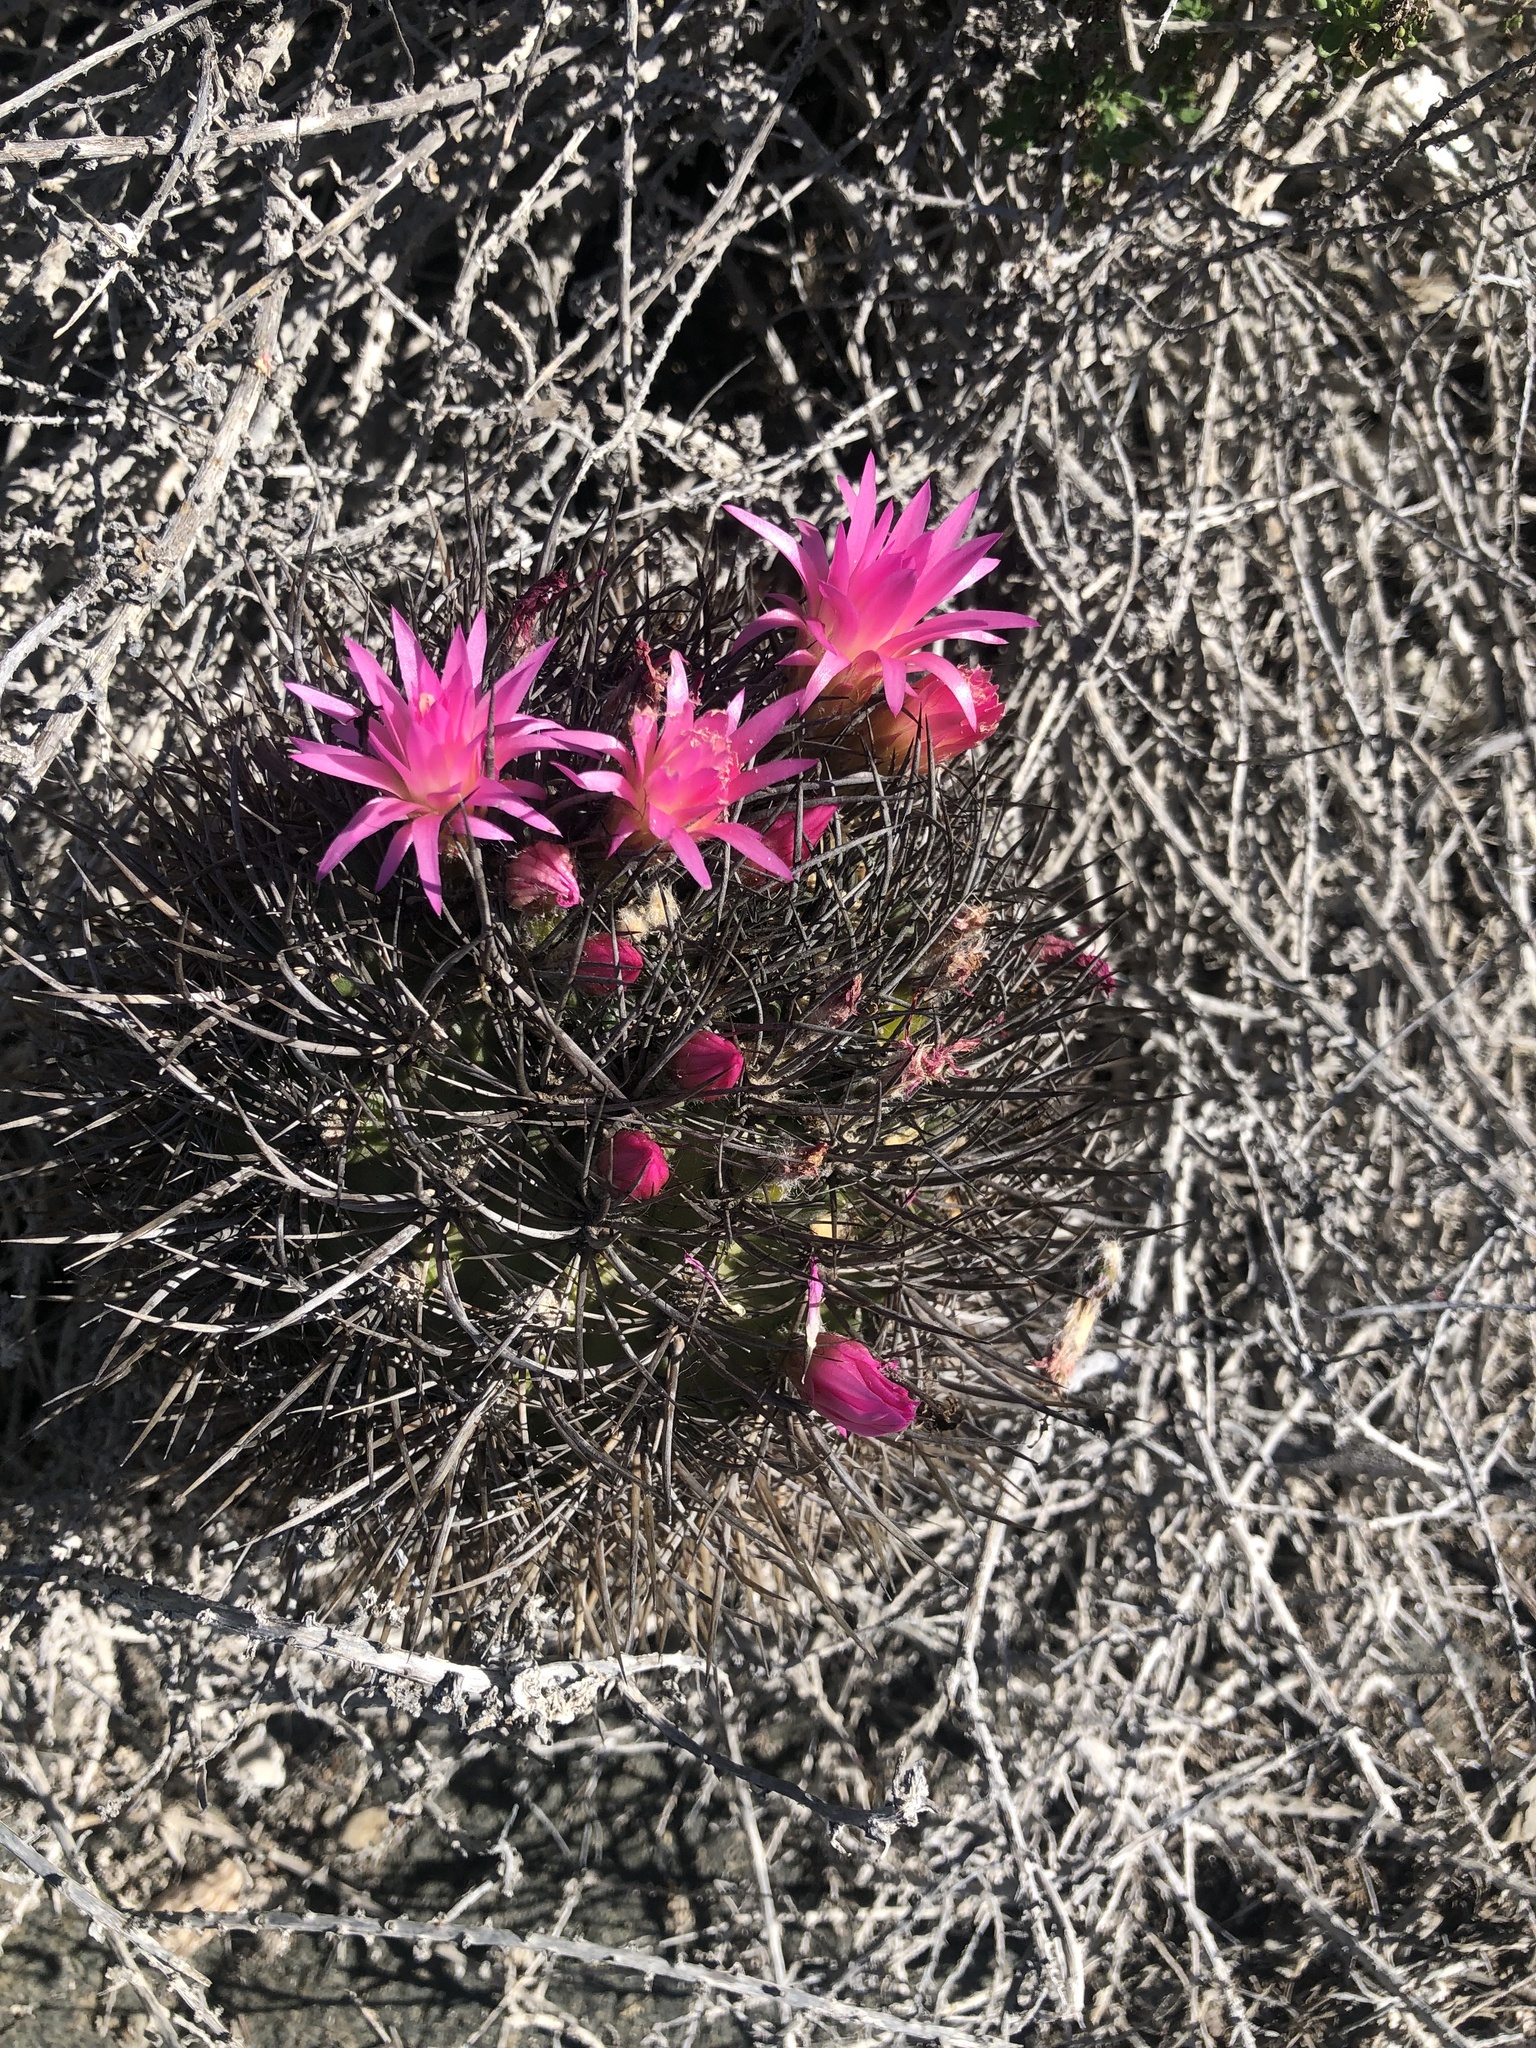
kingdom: Plantae
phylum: Tracheophyta
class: Magnoliopsida
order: Caryophyllales
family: Cactaceae
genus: Eriosyce
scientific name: Eriosyce wagenknechtii
